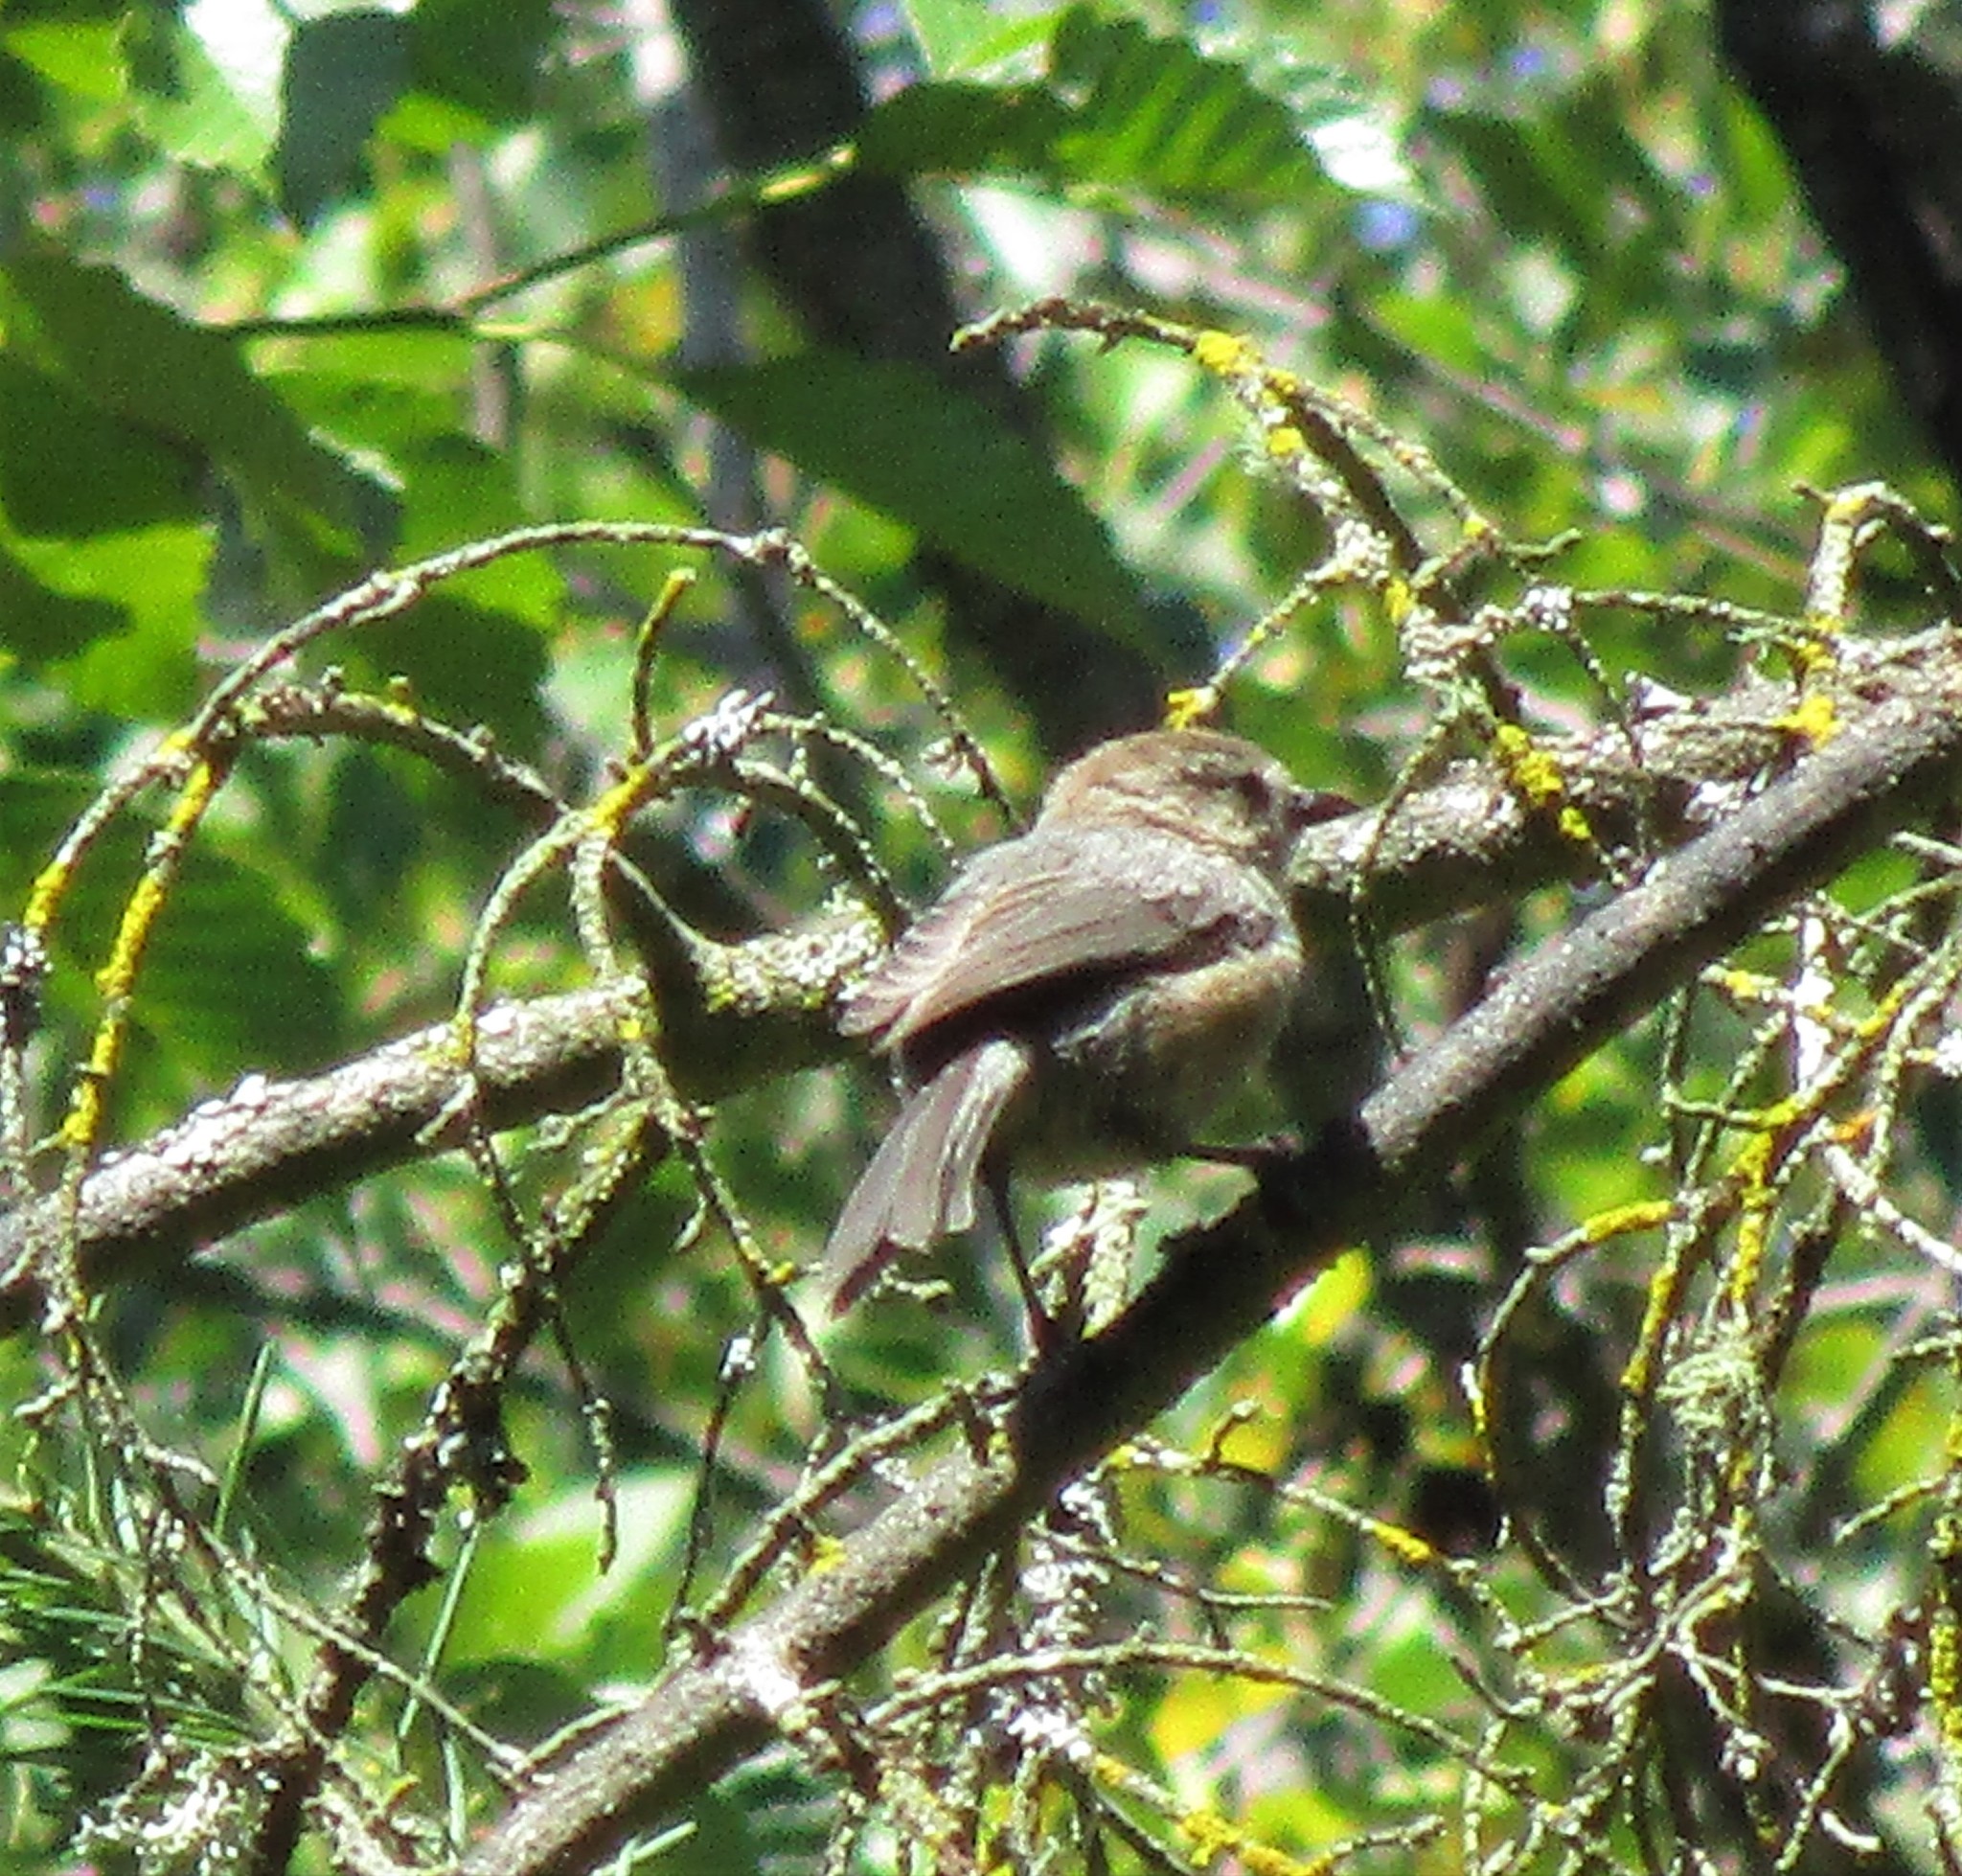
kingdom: Animalia
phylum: Chordata
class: Aves
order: Passeriformes
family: Aegithalidae
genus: Psaltriparus
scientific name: Psaltriparus minimus
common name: American bushtit
